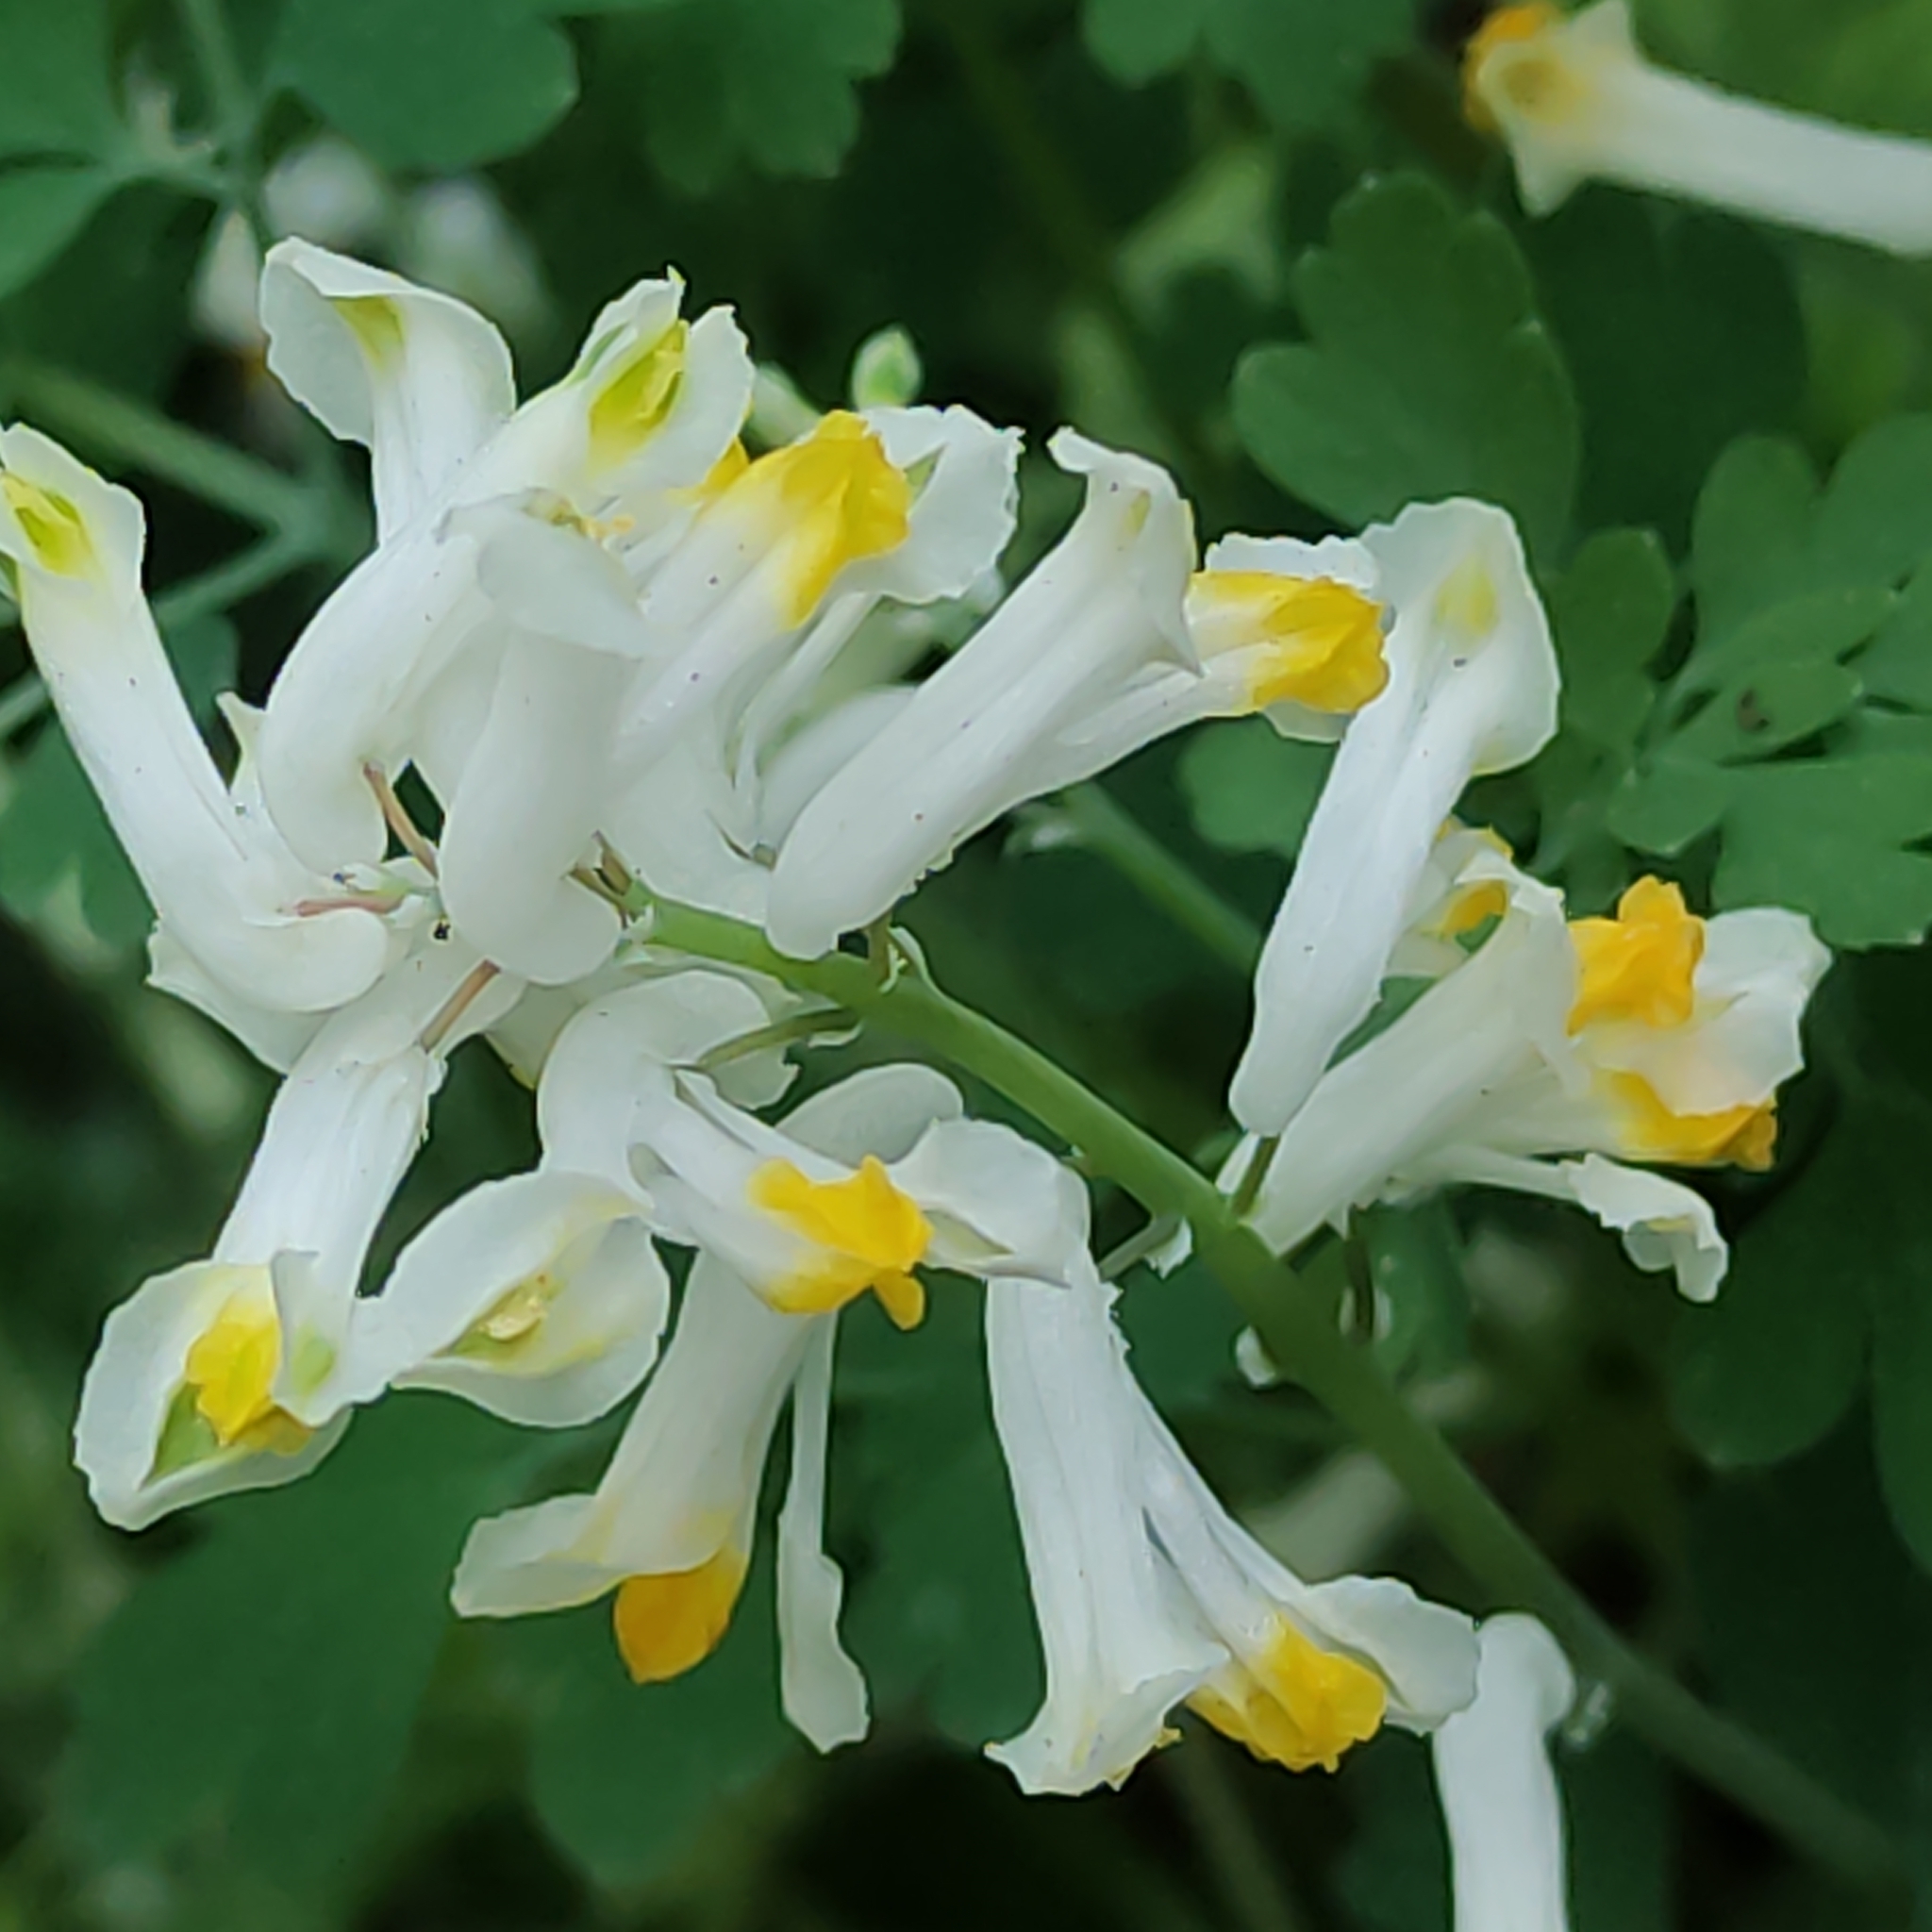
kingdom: Plantae
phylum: Tracheophyta
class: Magnoliopsida
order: Ranunculales
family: Papaveraceae
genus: Pseudofumaria
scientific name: Pseudofumaria alba
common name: Pale corydalis
